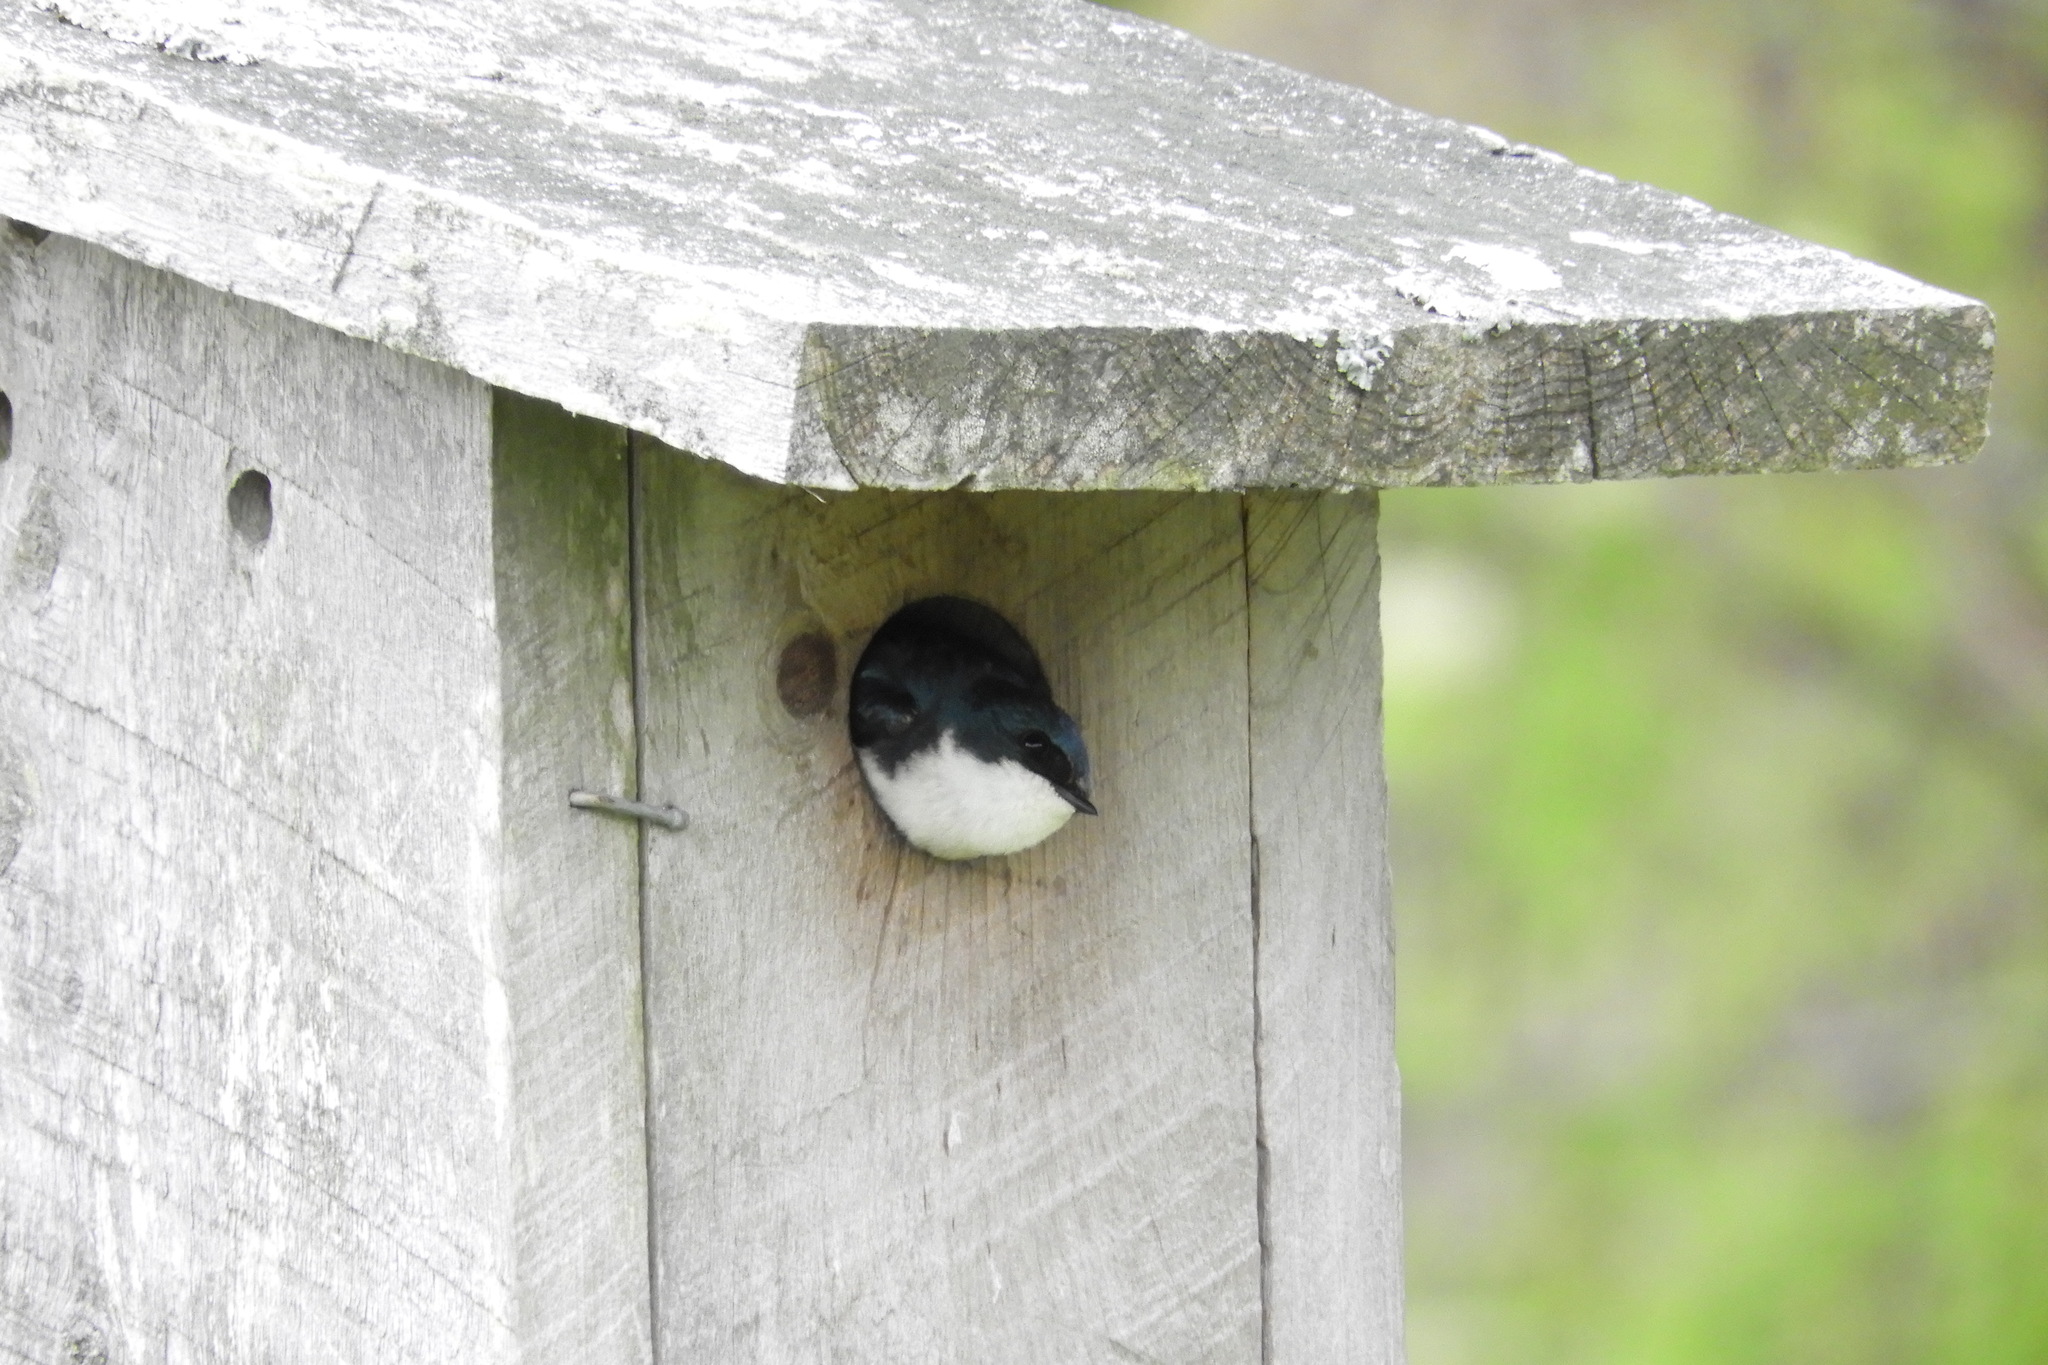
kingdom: Animalia
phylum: Chordata
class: Aves
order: Passeriformes
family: Hirundinidae
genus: Tachycineta
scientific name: Tachycineta bicolor
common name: Tree swallow
